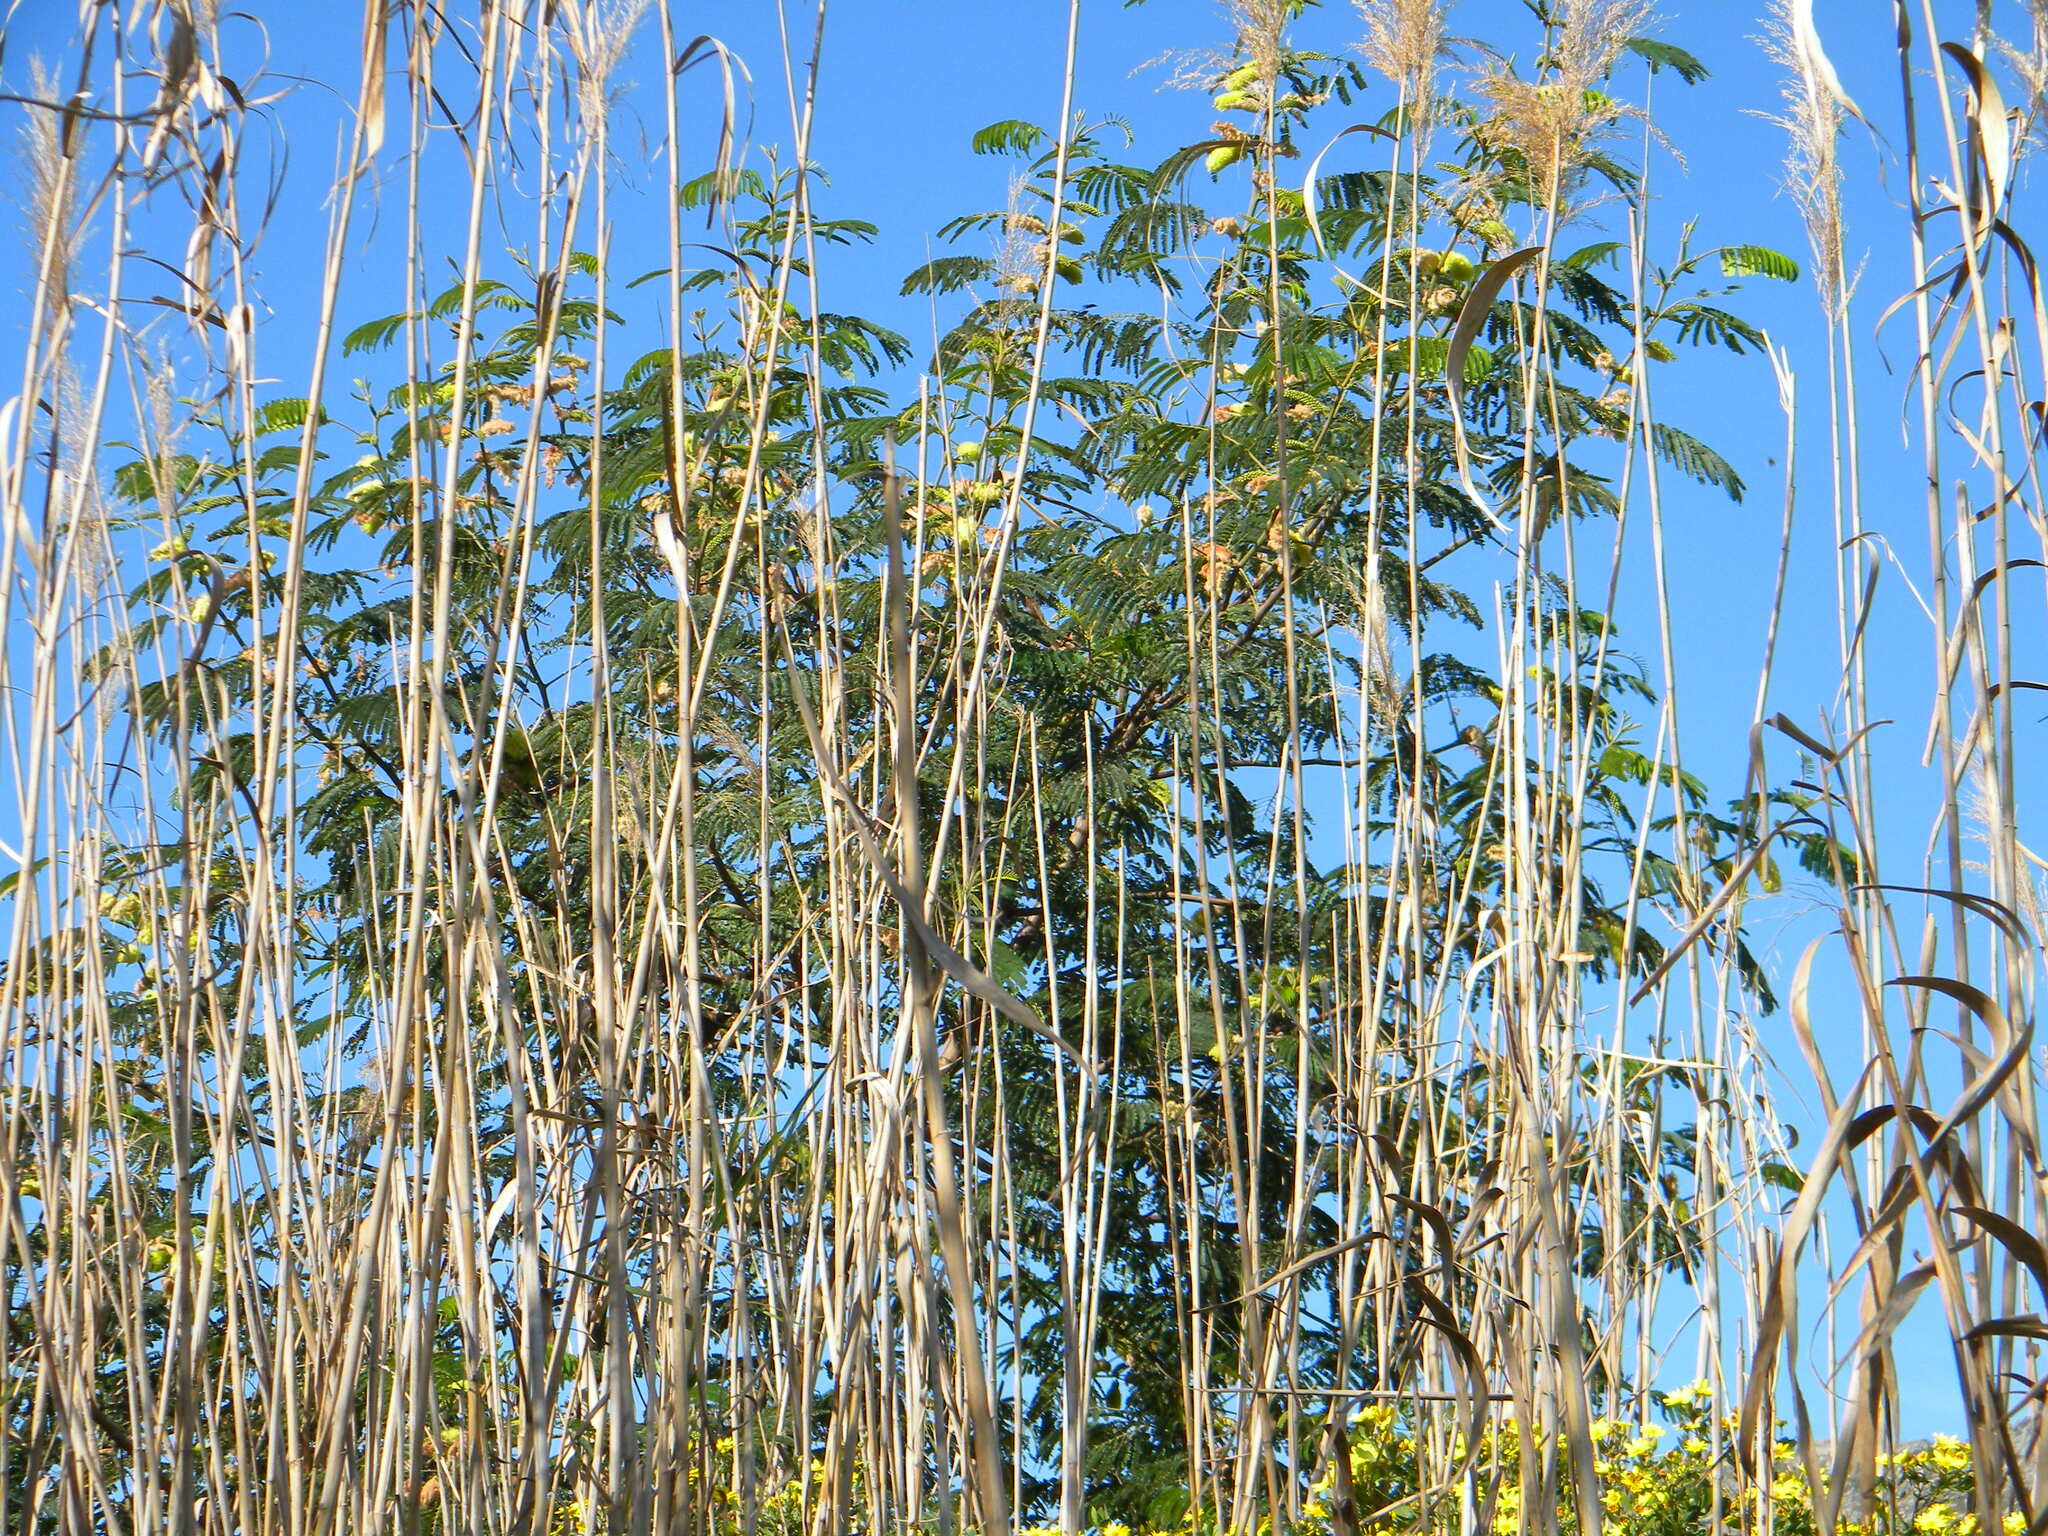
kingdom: Plantae
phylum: Tracheophyta
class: Magnoliopsida
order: Fabales
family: Fabaceae
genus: Paraserianthes
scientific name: Paraserianthes lophantha
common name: Plume albizia
